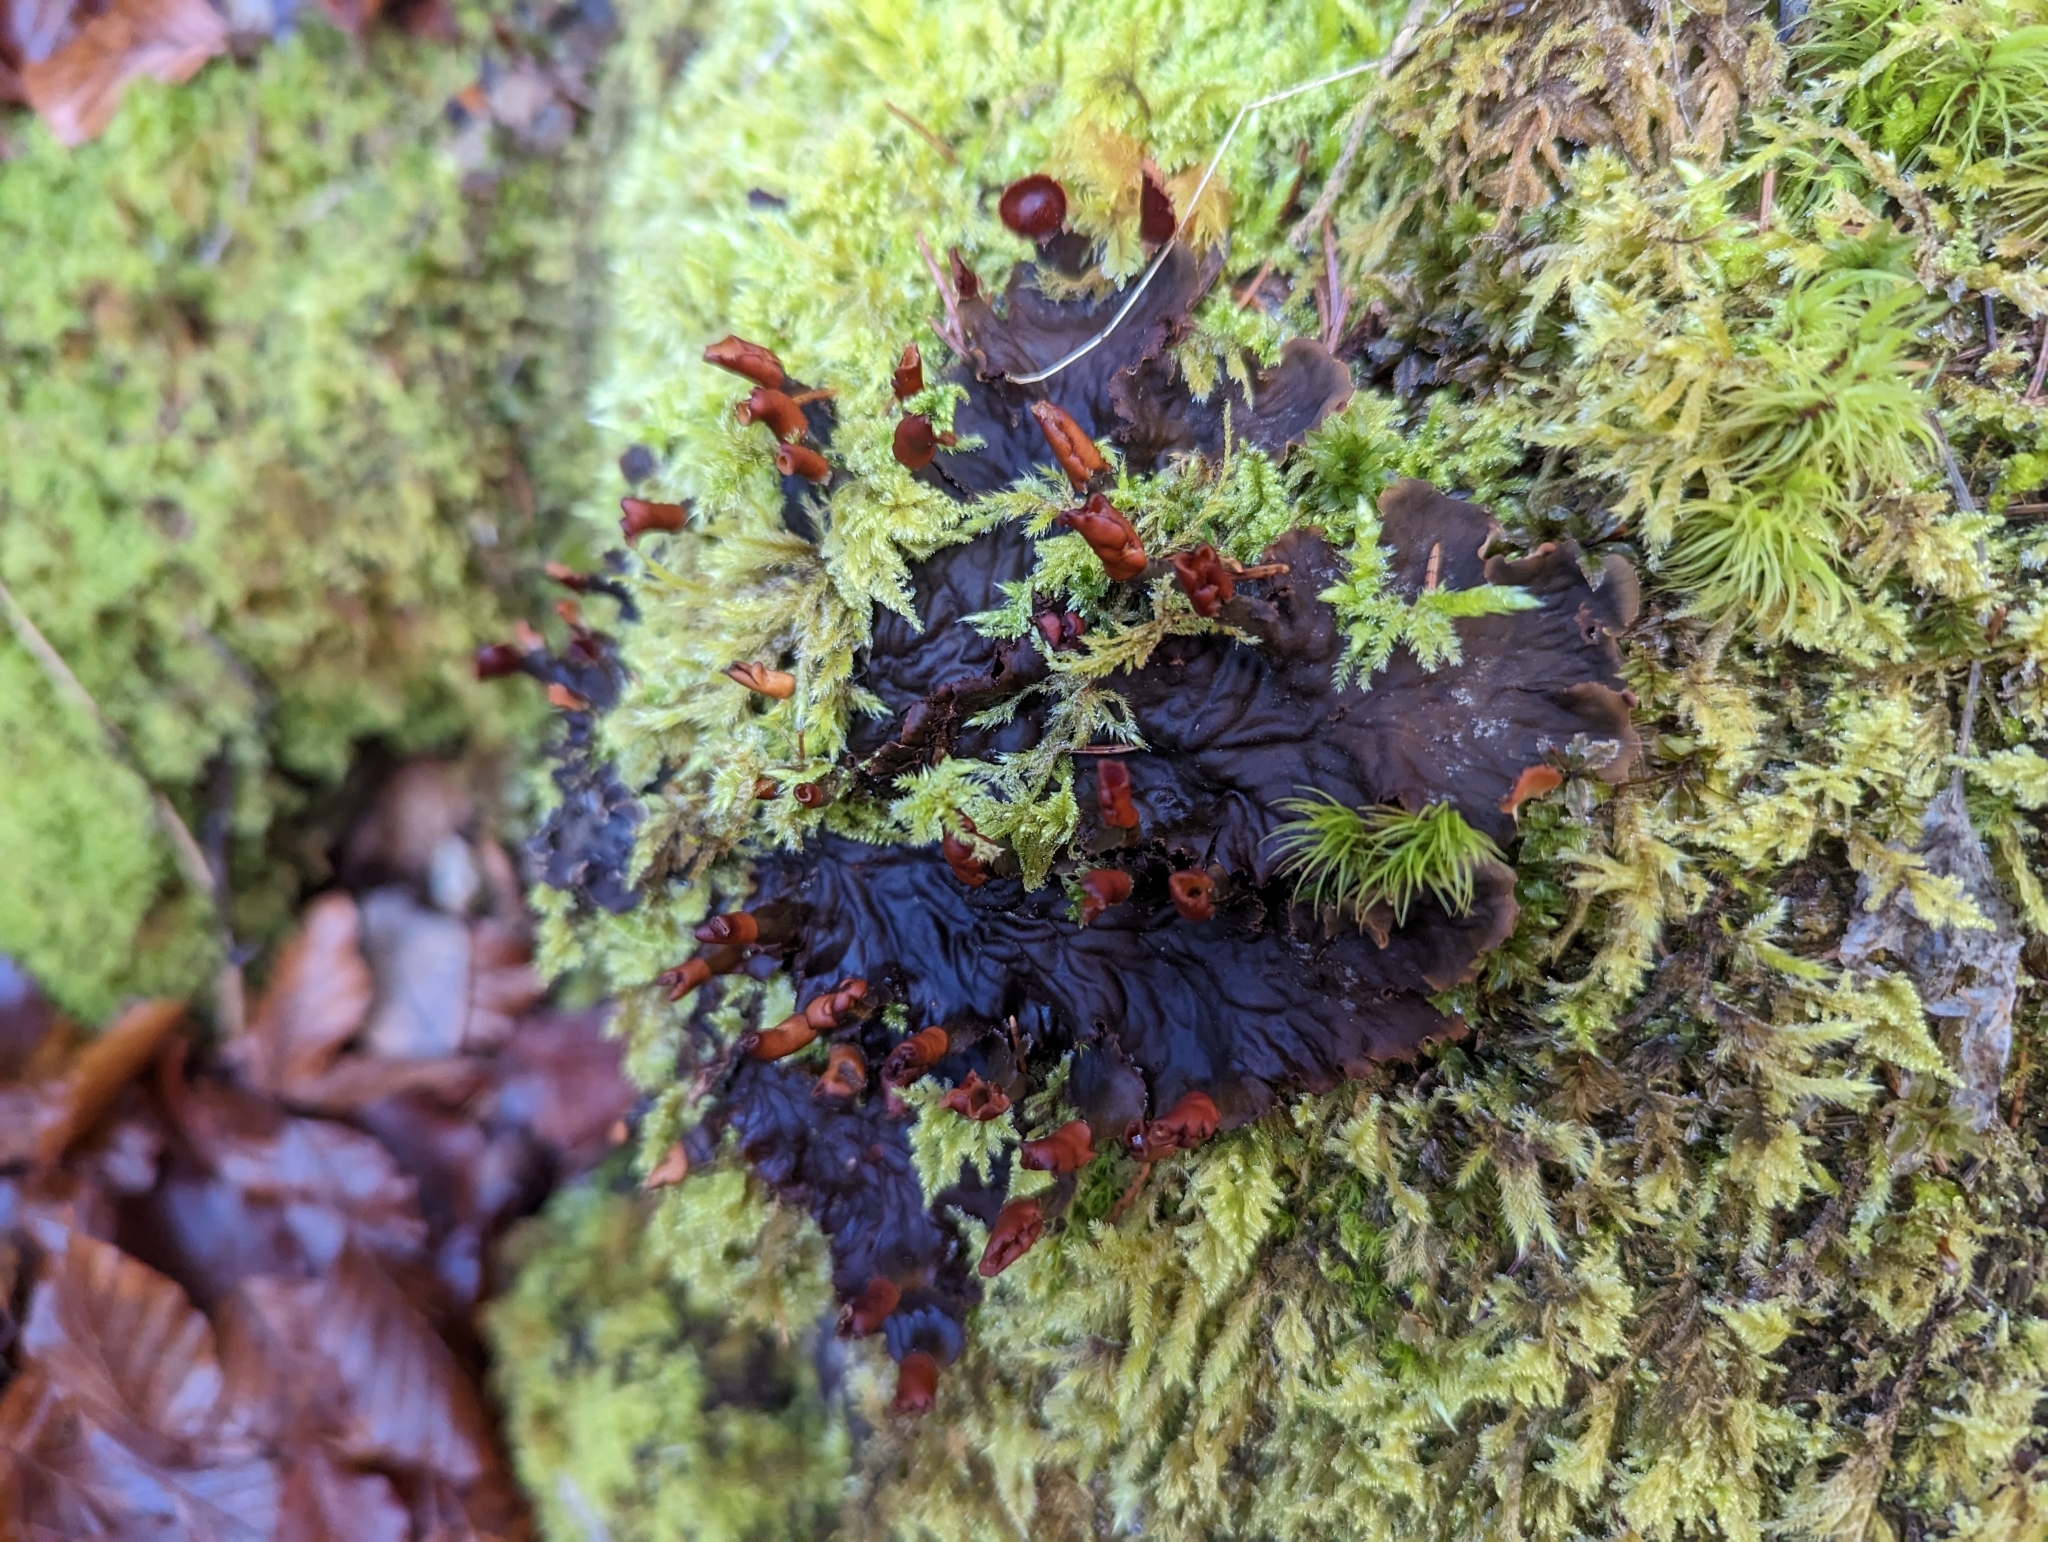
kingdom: Fungi
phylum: Ascomycota
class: Lecanoromycetes
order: Peltigerales
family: Peltigeraceae
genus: Peltigera
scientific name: Peltigera praetextata
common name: Scaly dog-lichen
